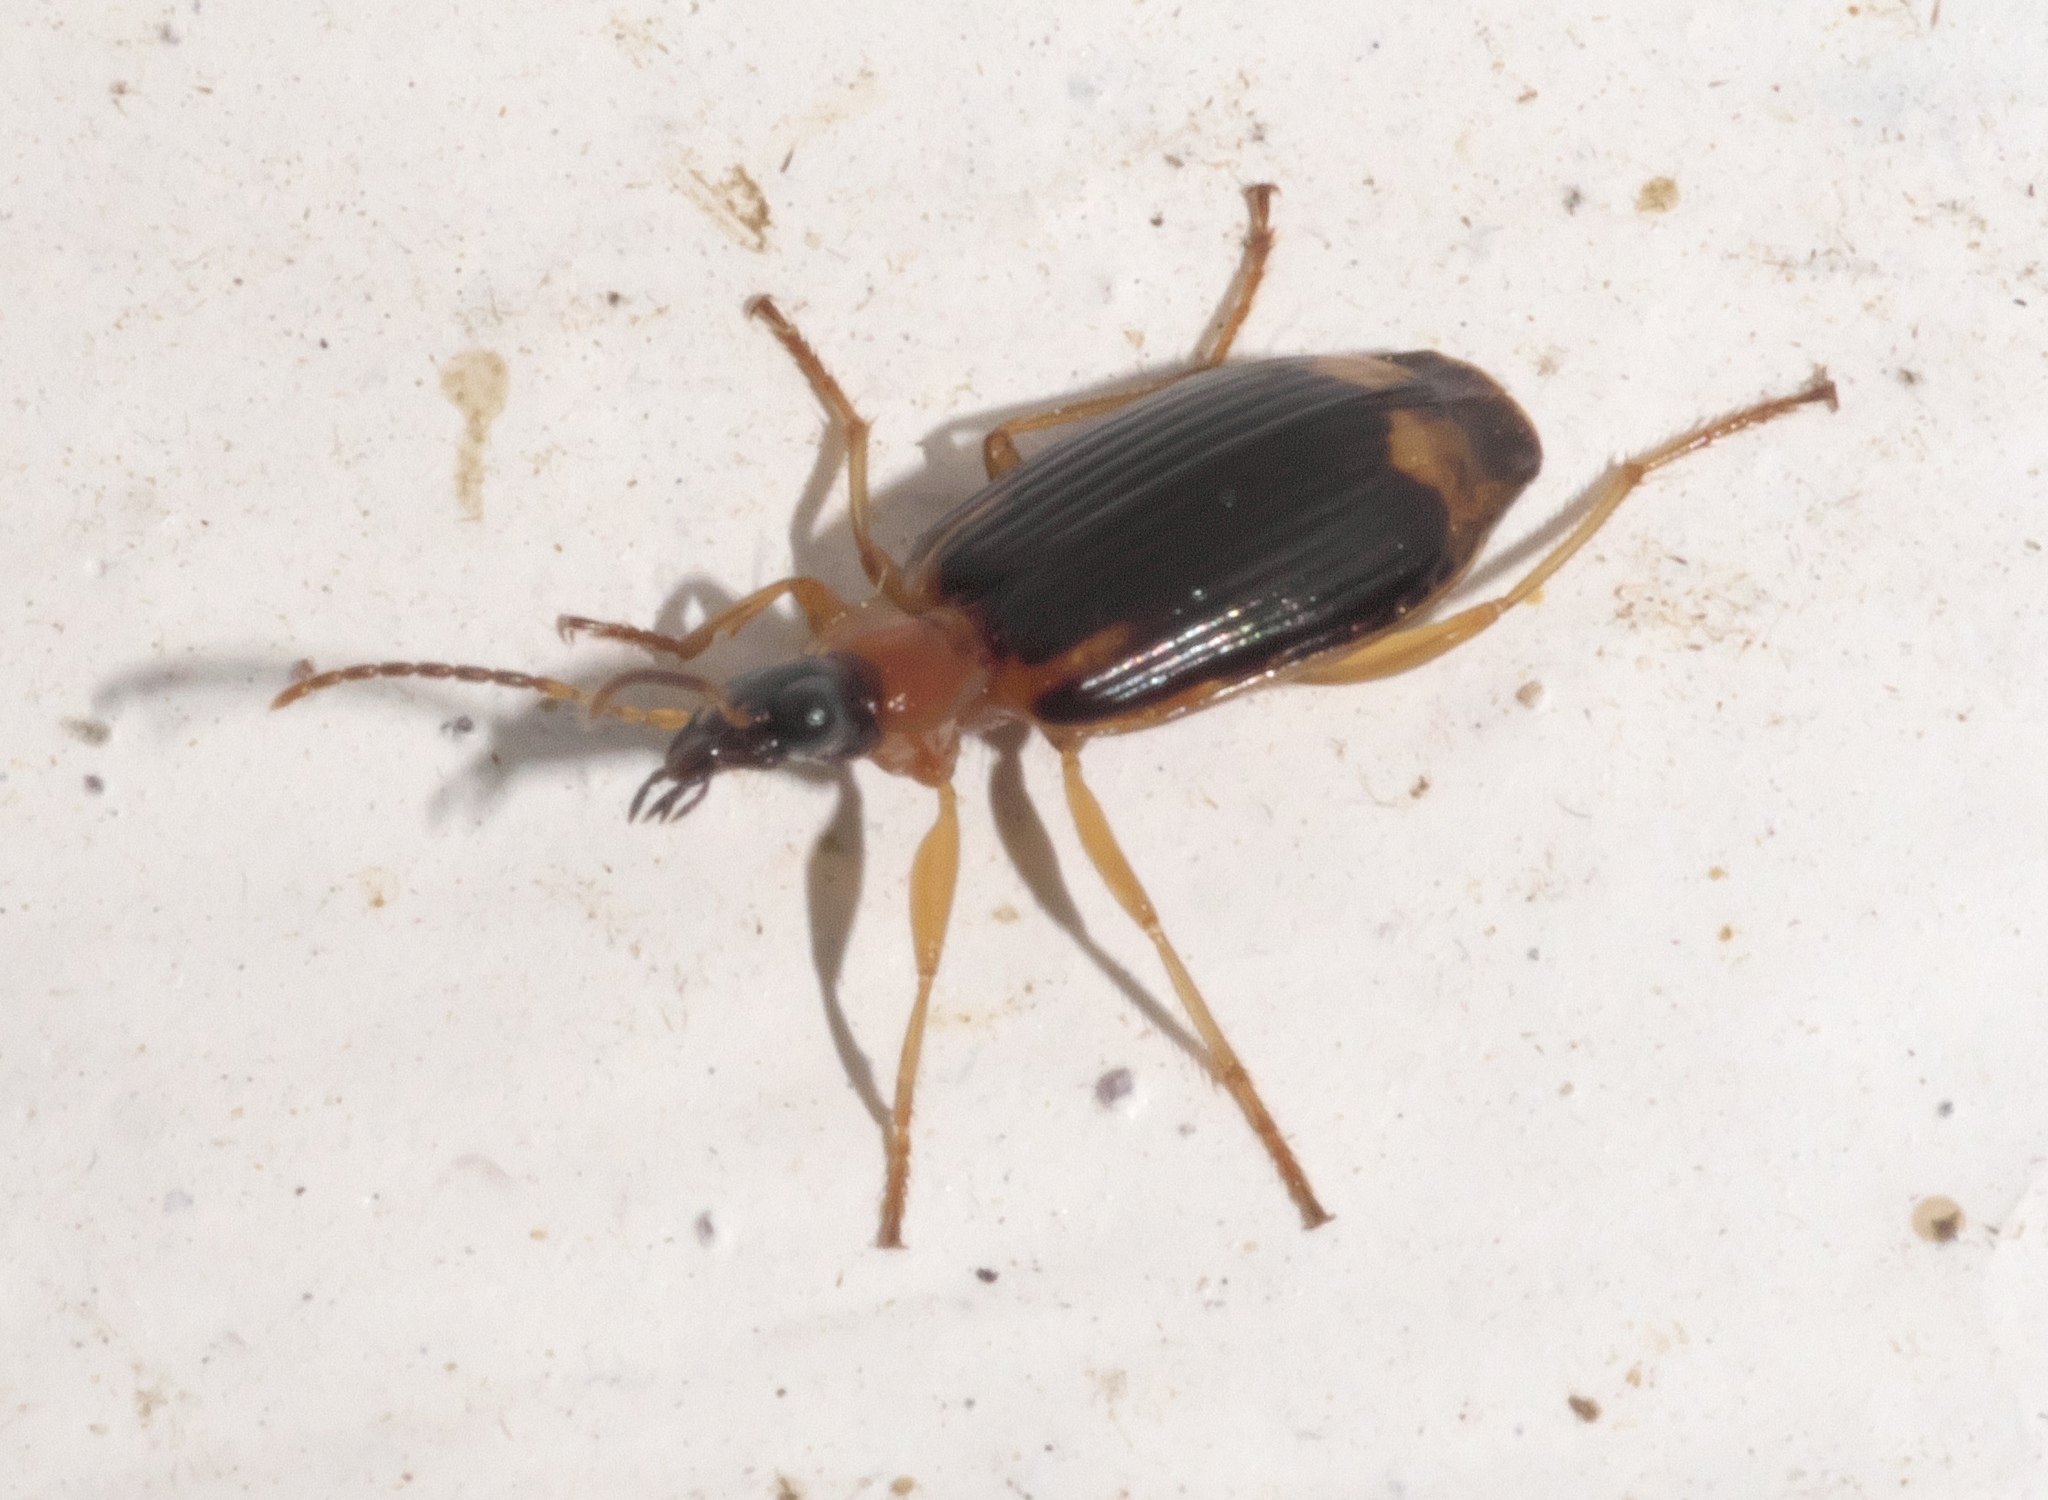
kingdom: Animalia
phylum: Arthropoda
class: Insecta
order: Coleoptera
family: Carabidae
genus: Lebia
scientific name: Lebia analis
